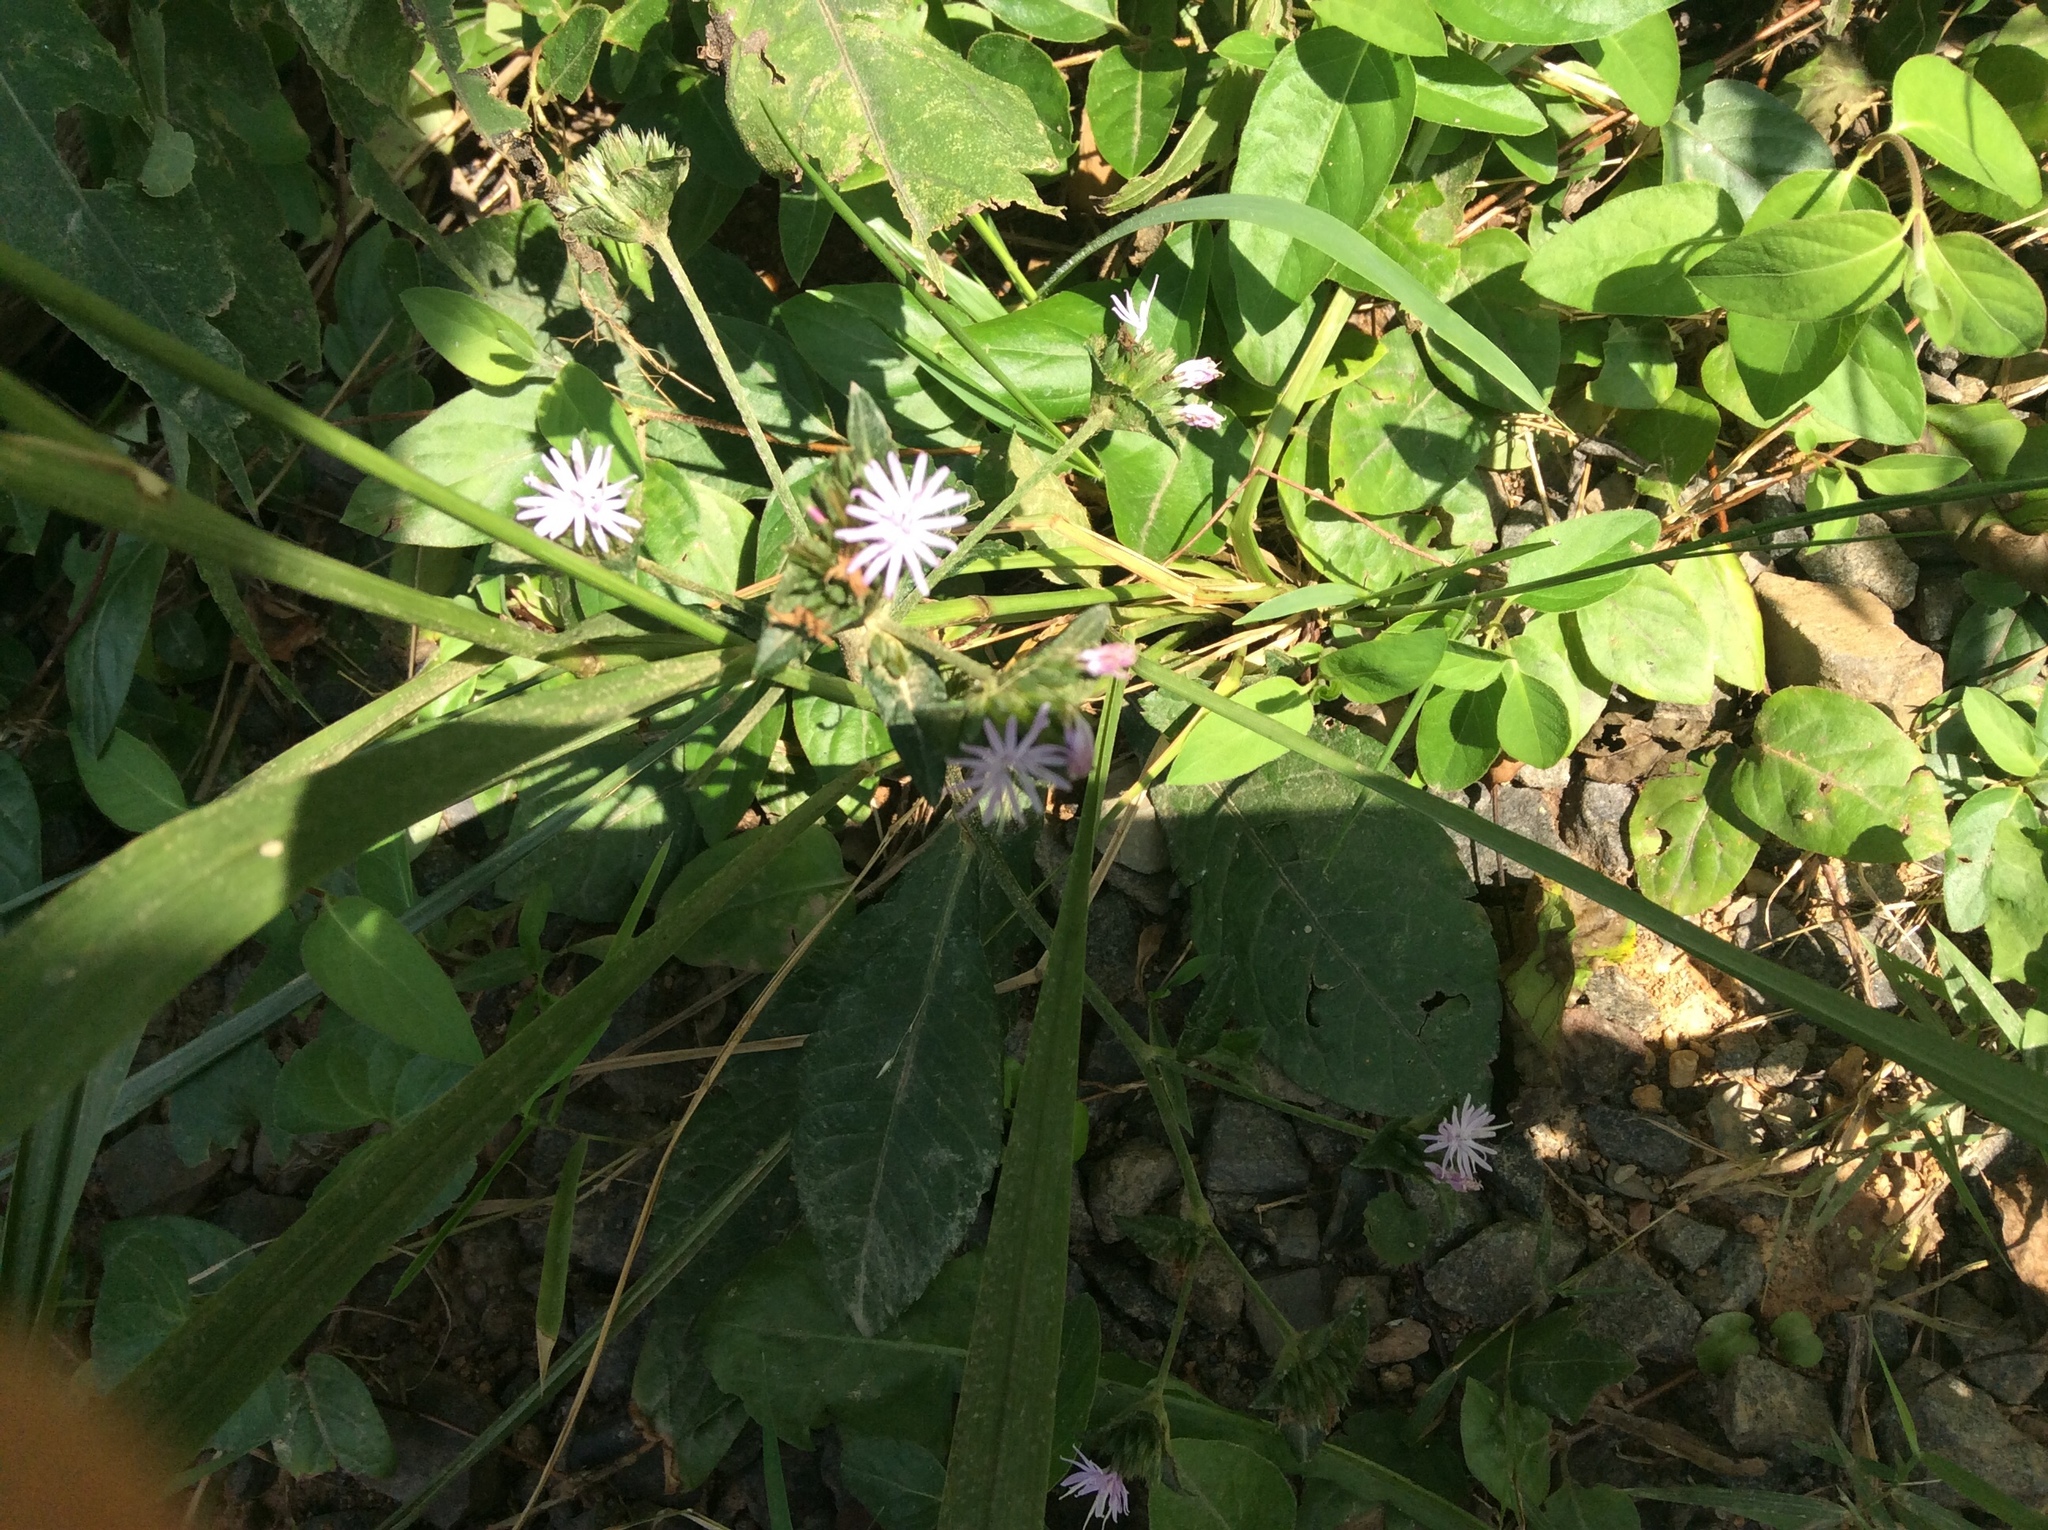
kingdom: Plantae
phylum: Tracheophyta
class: Magnoliopsida
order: Asterales
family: Asteraceae
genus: Elephantopus
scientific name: Elephantopus carolinianus
